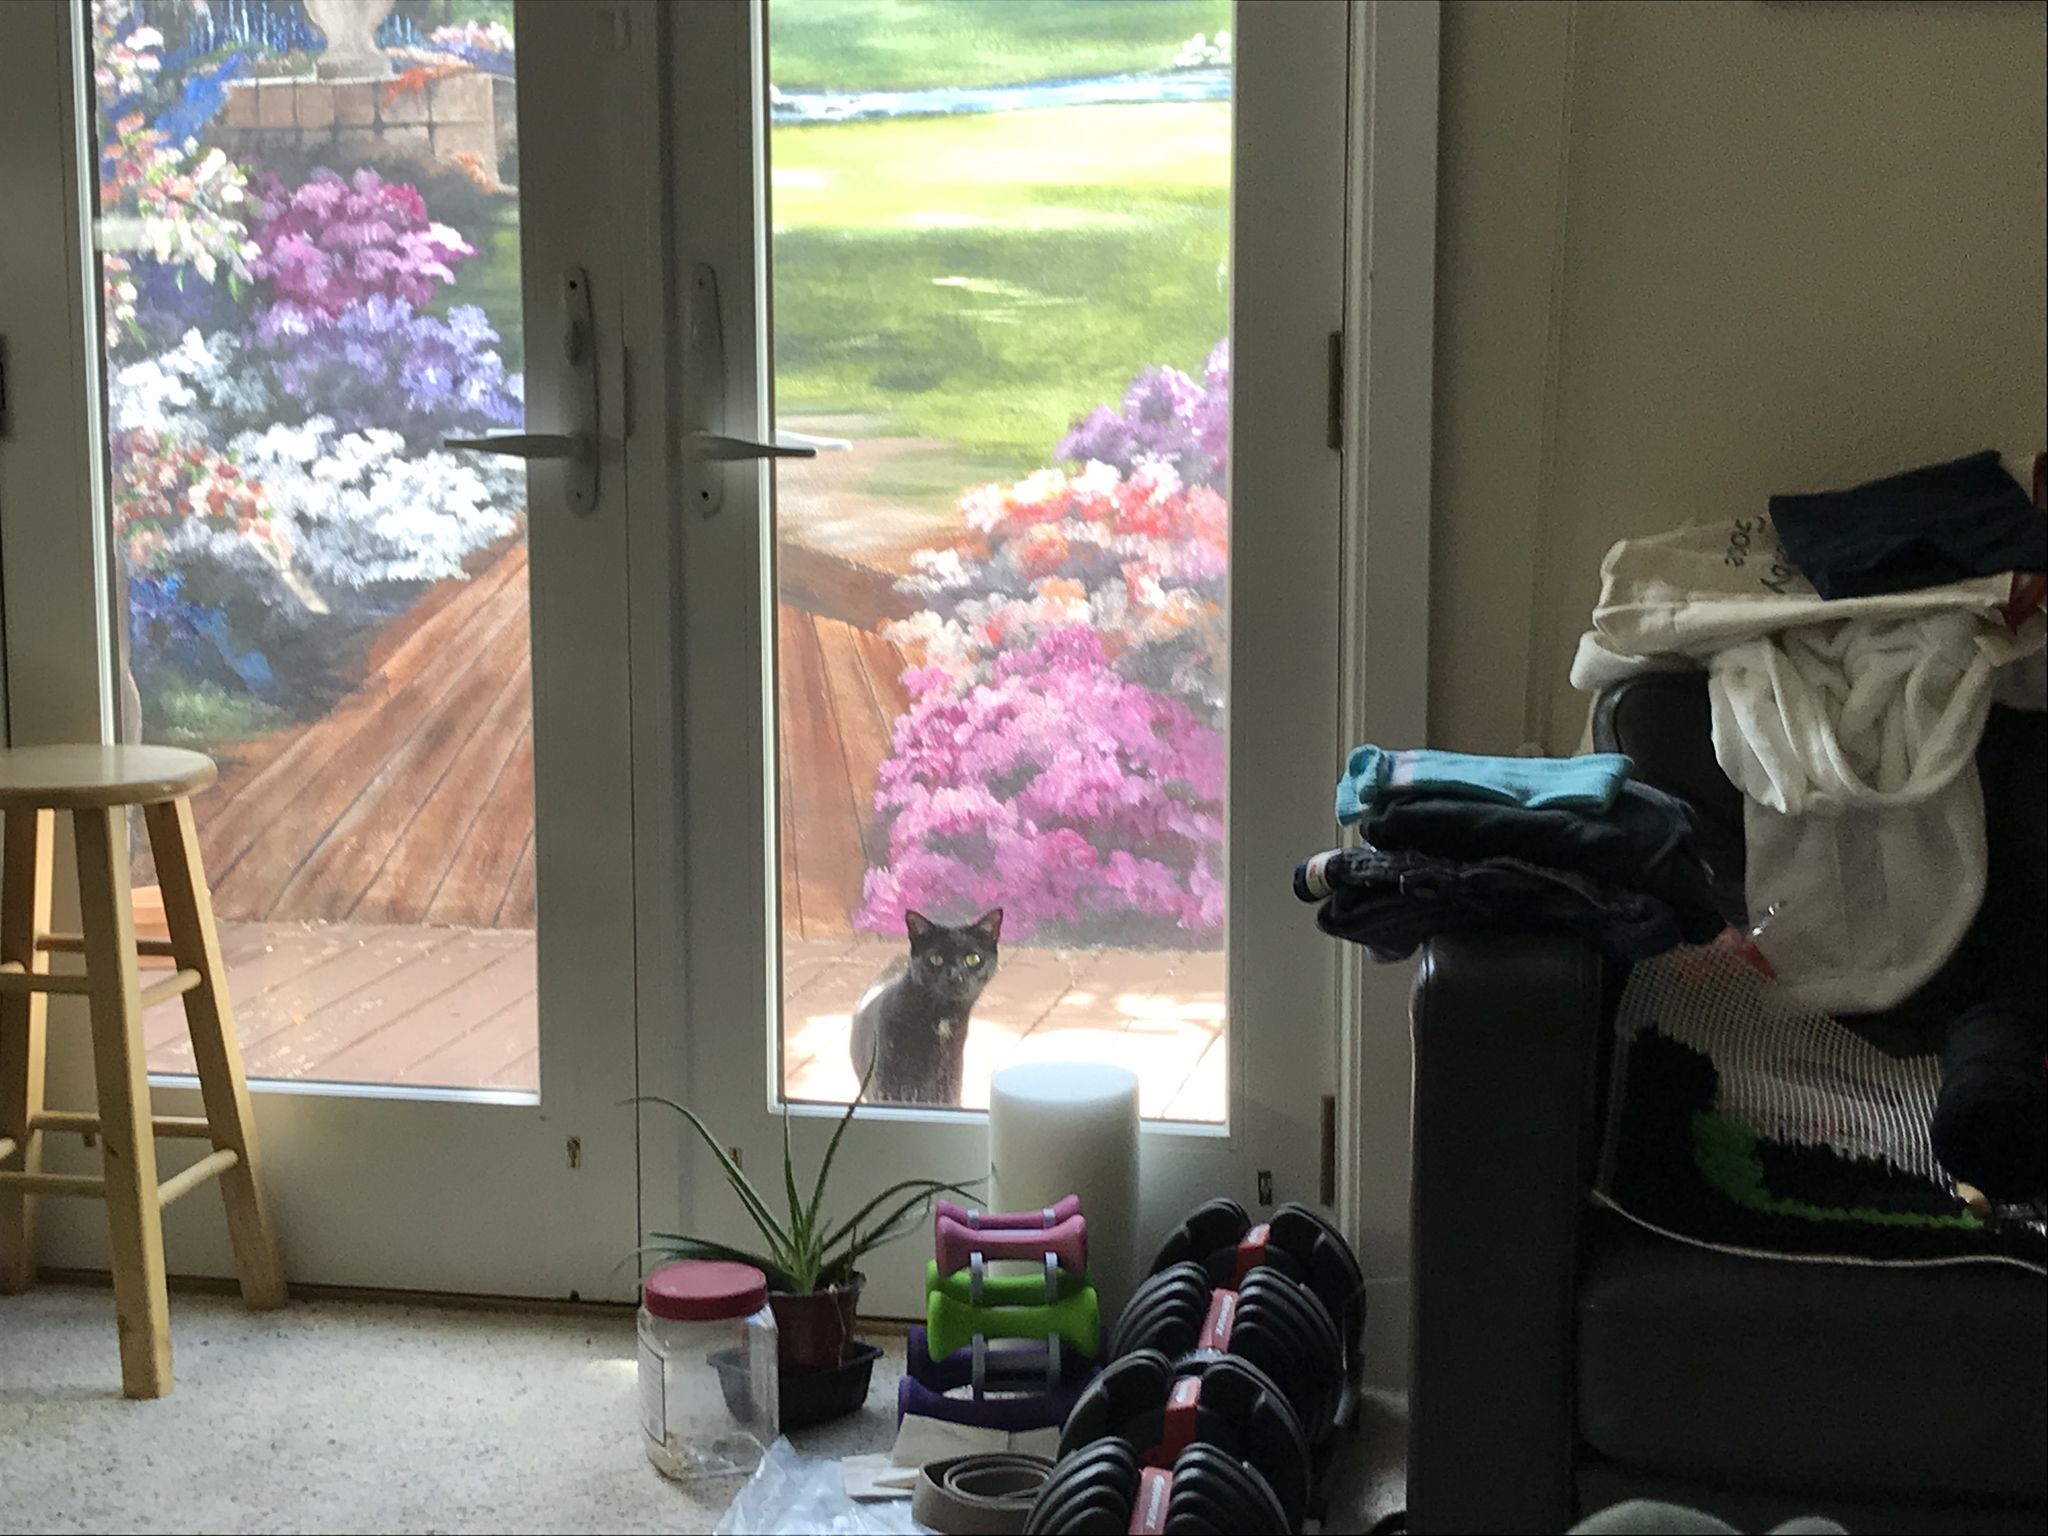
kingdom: Animalia
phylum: Chordata
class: Mammalia
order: Carnivora
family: Felidae
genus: Felis
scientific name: Felis catus
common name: Domestic cat
